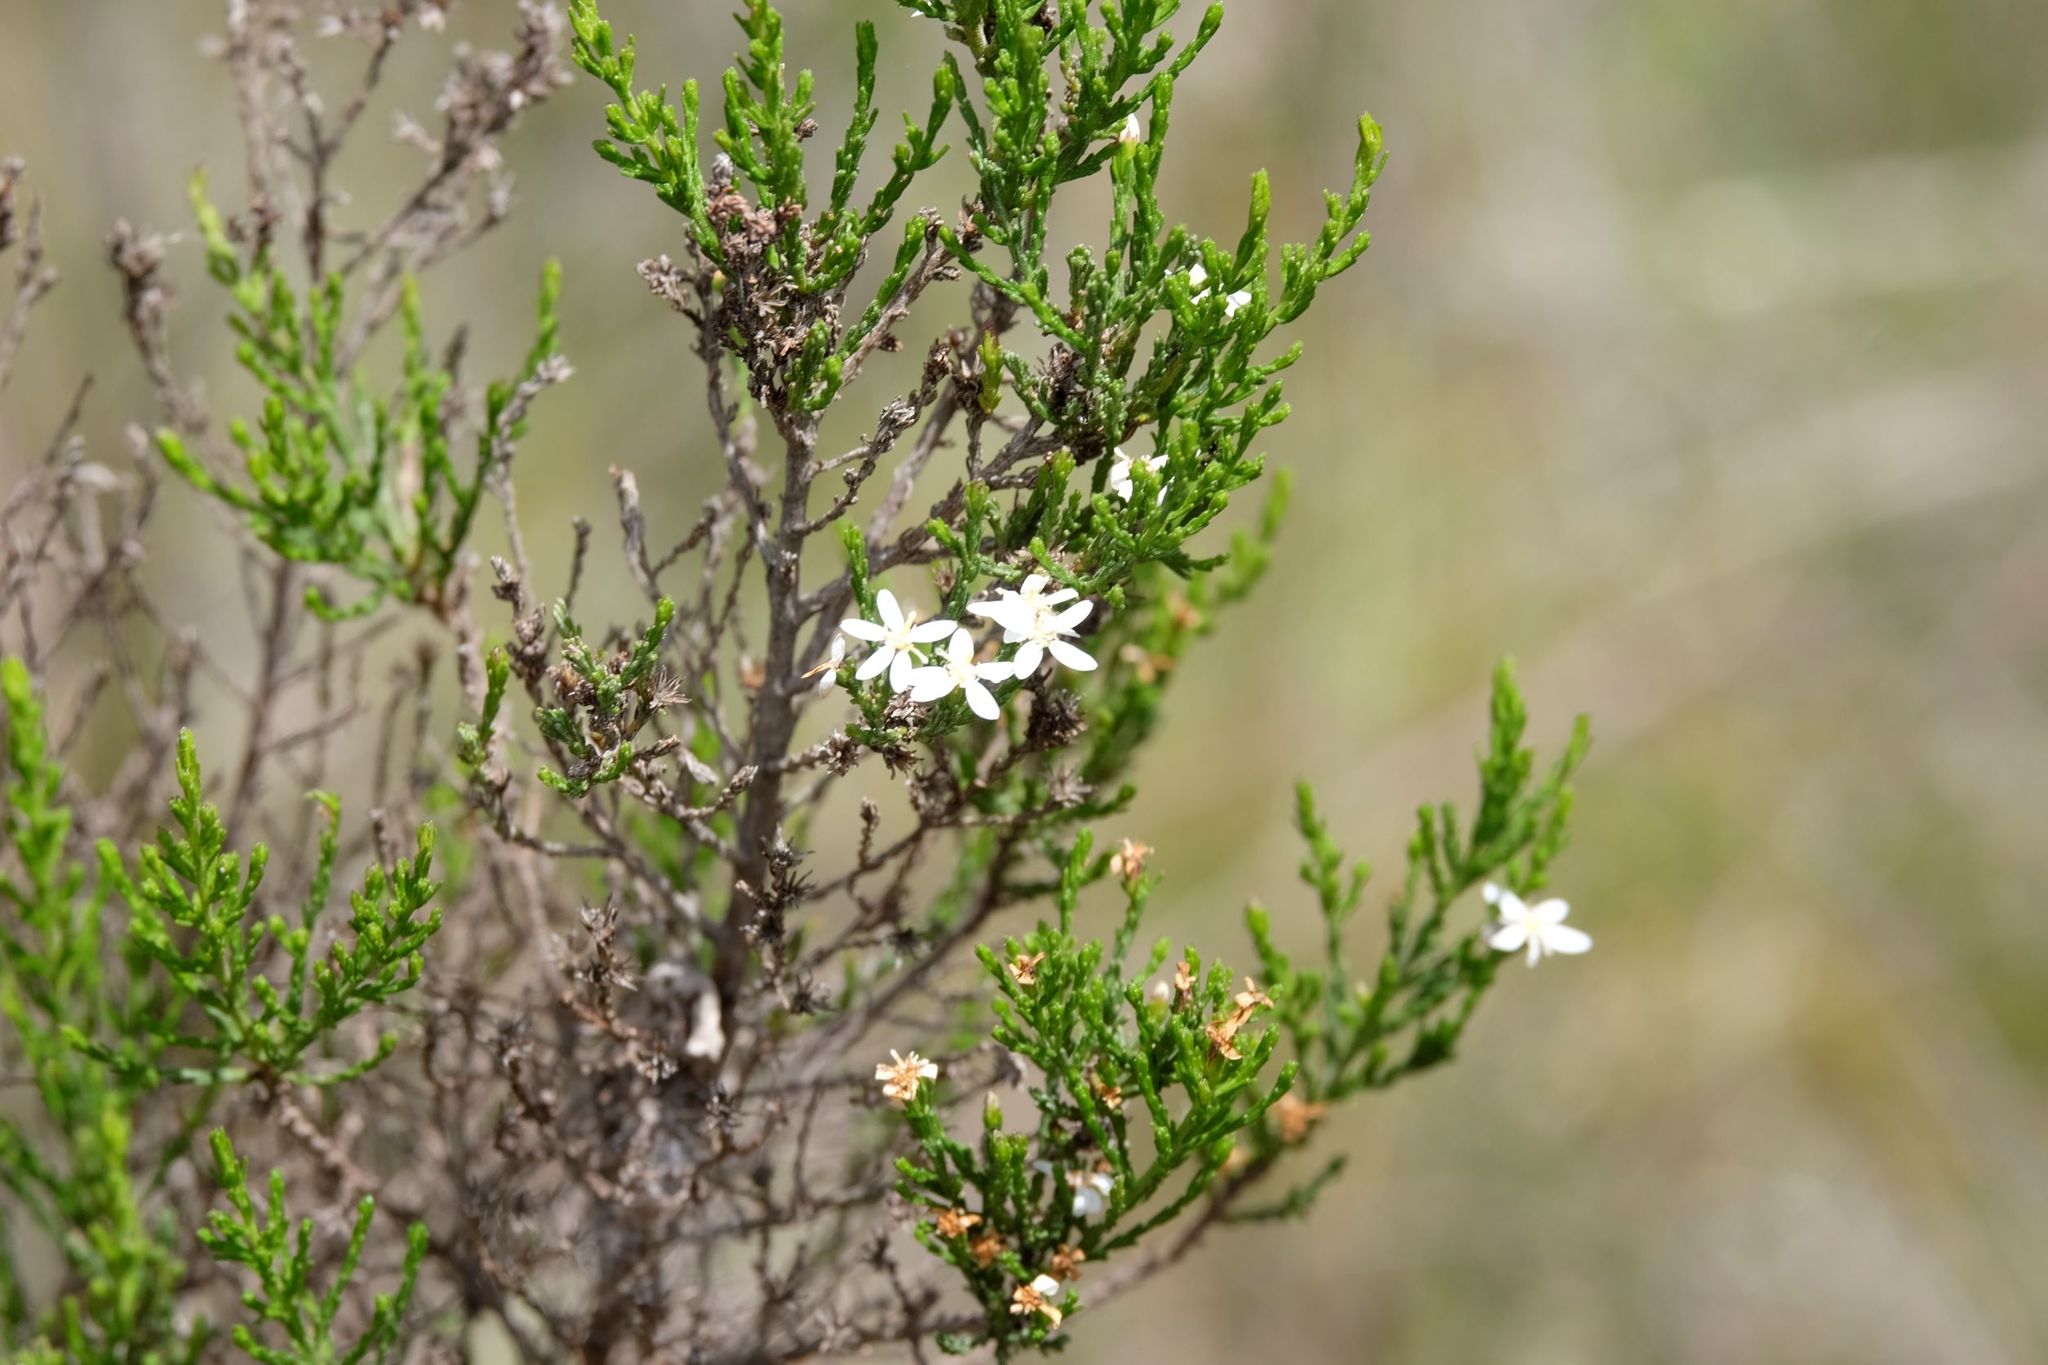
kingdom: Plantae
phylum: Tracheophyta
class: Magnoliopsida
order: Asterales
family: Asteraceae
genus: Olearia
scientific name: Olearia teretifolia
